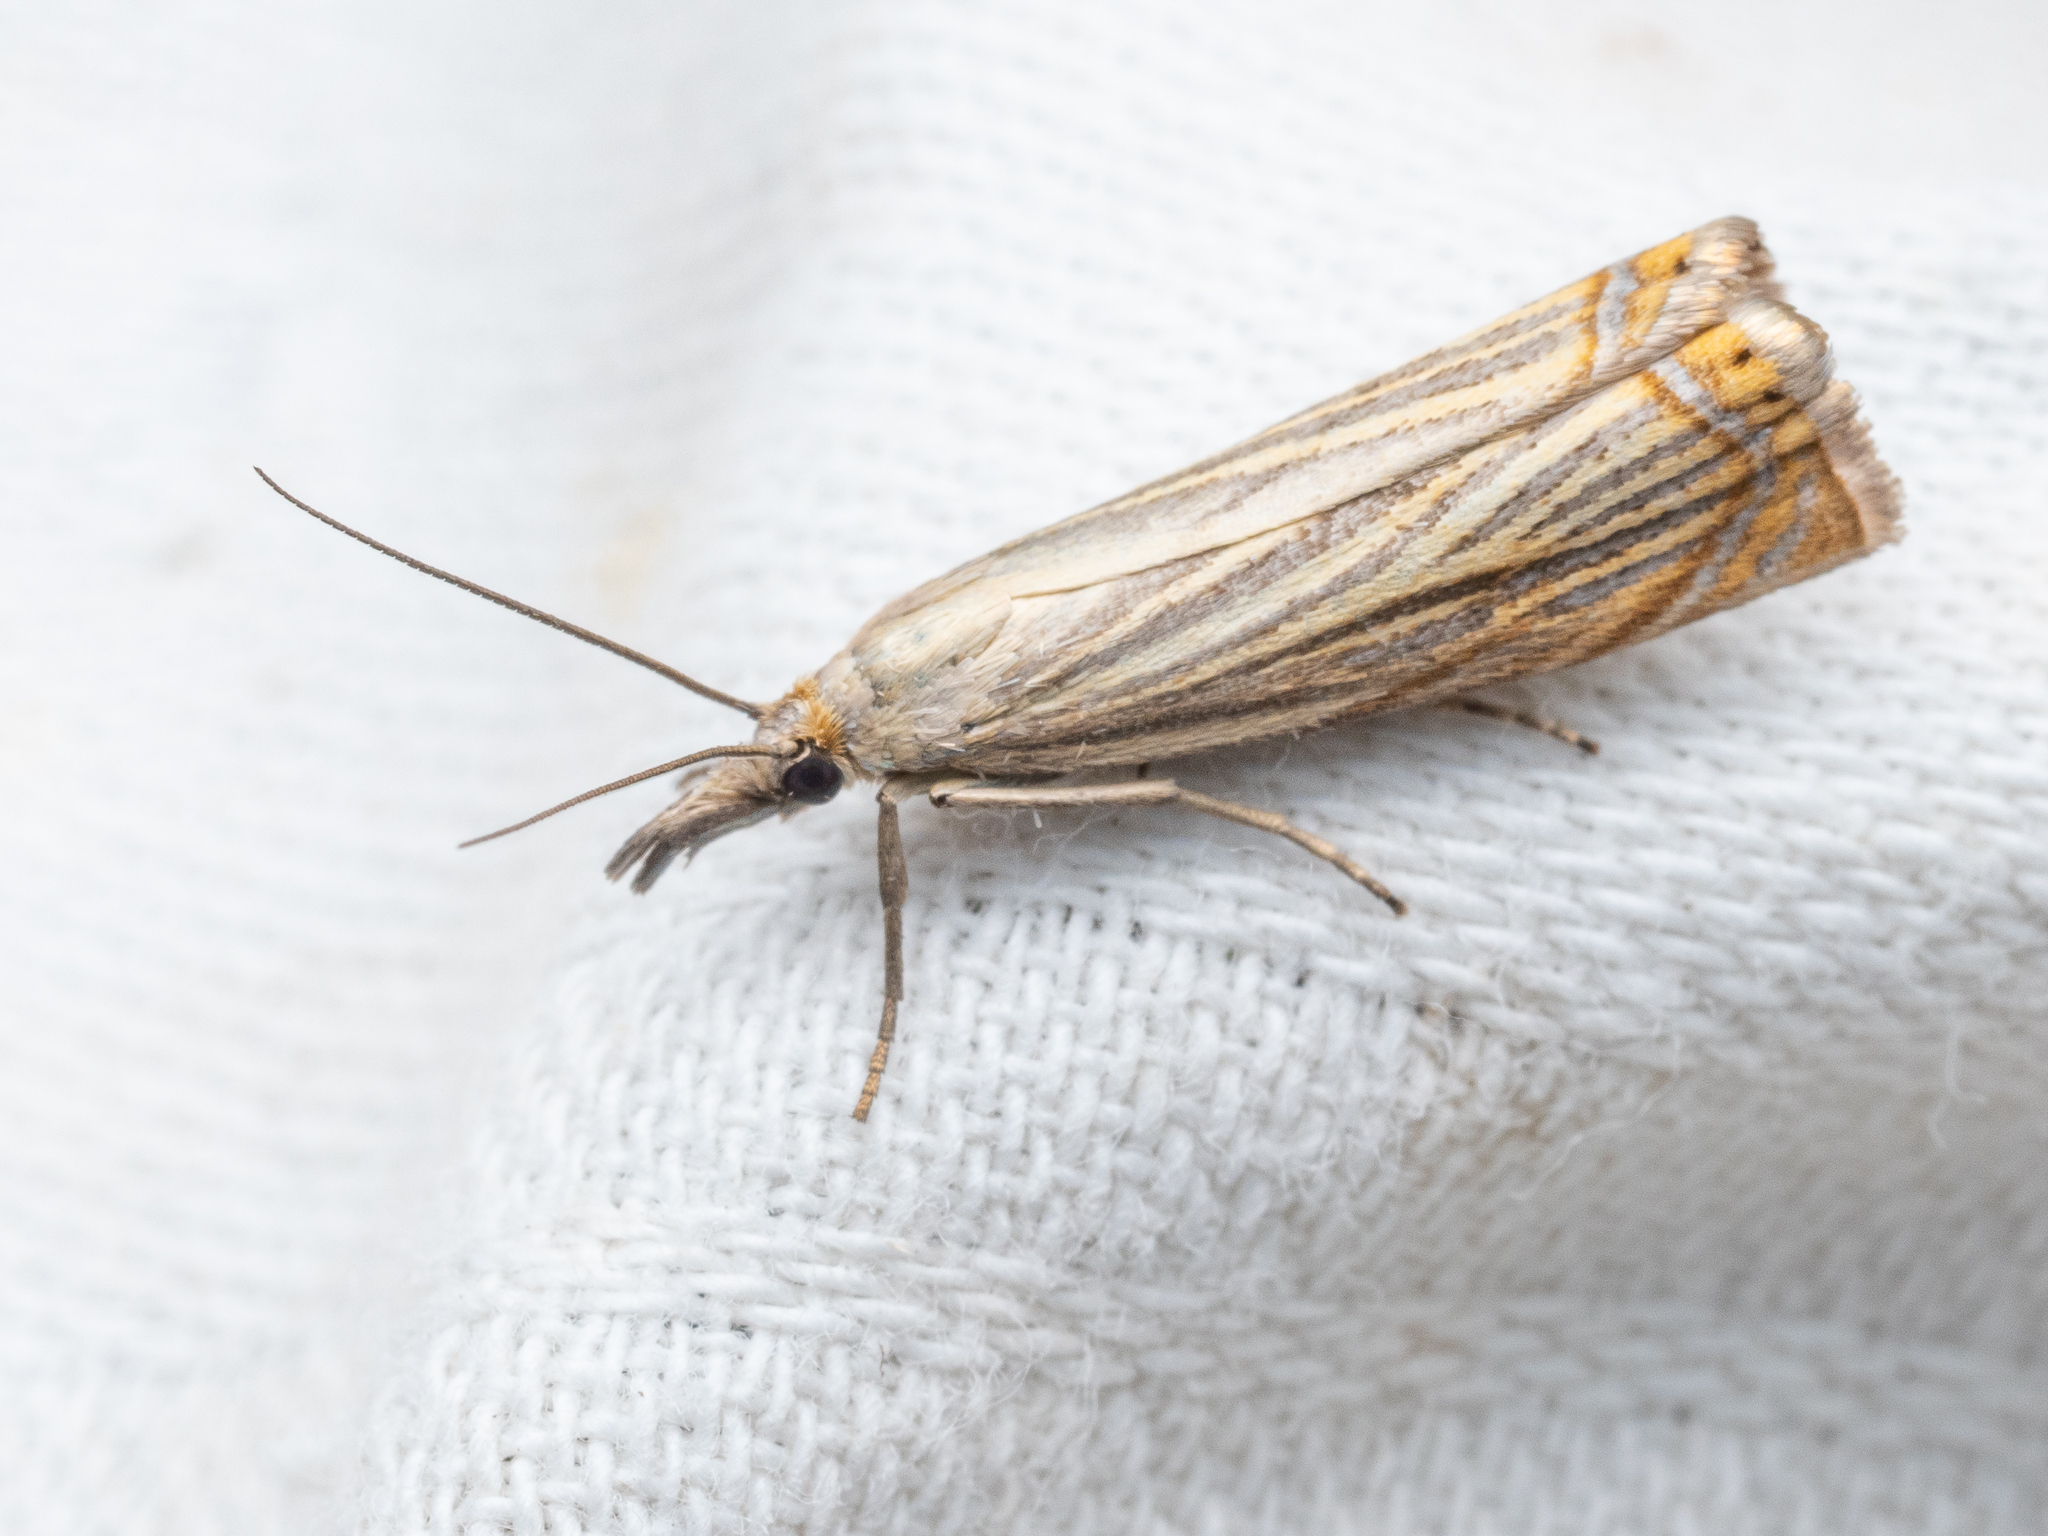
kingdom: Animalia
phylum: Arthropoda
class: Insecta
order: Lepidoptera
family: Crambidae
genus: Chrysoteuchia
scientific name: Chrysoteuchia culmella
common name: Garden grass-veneer
